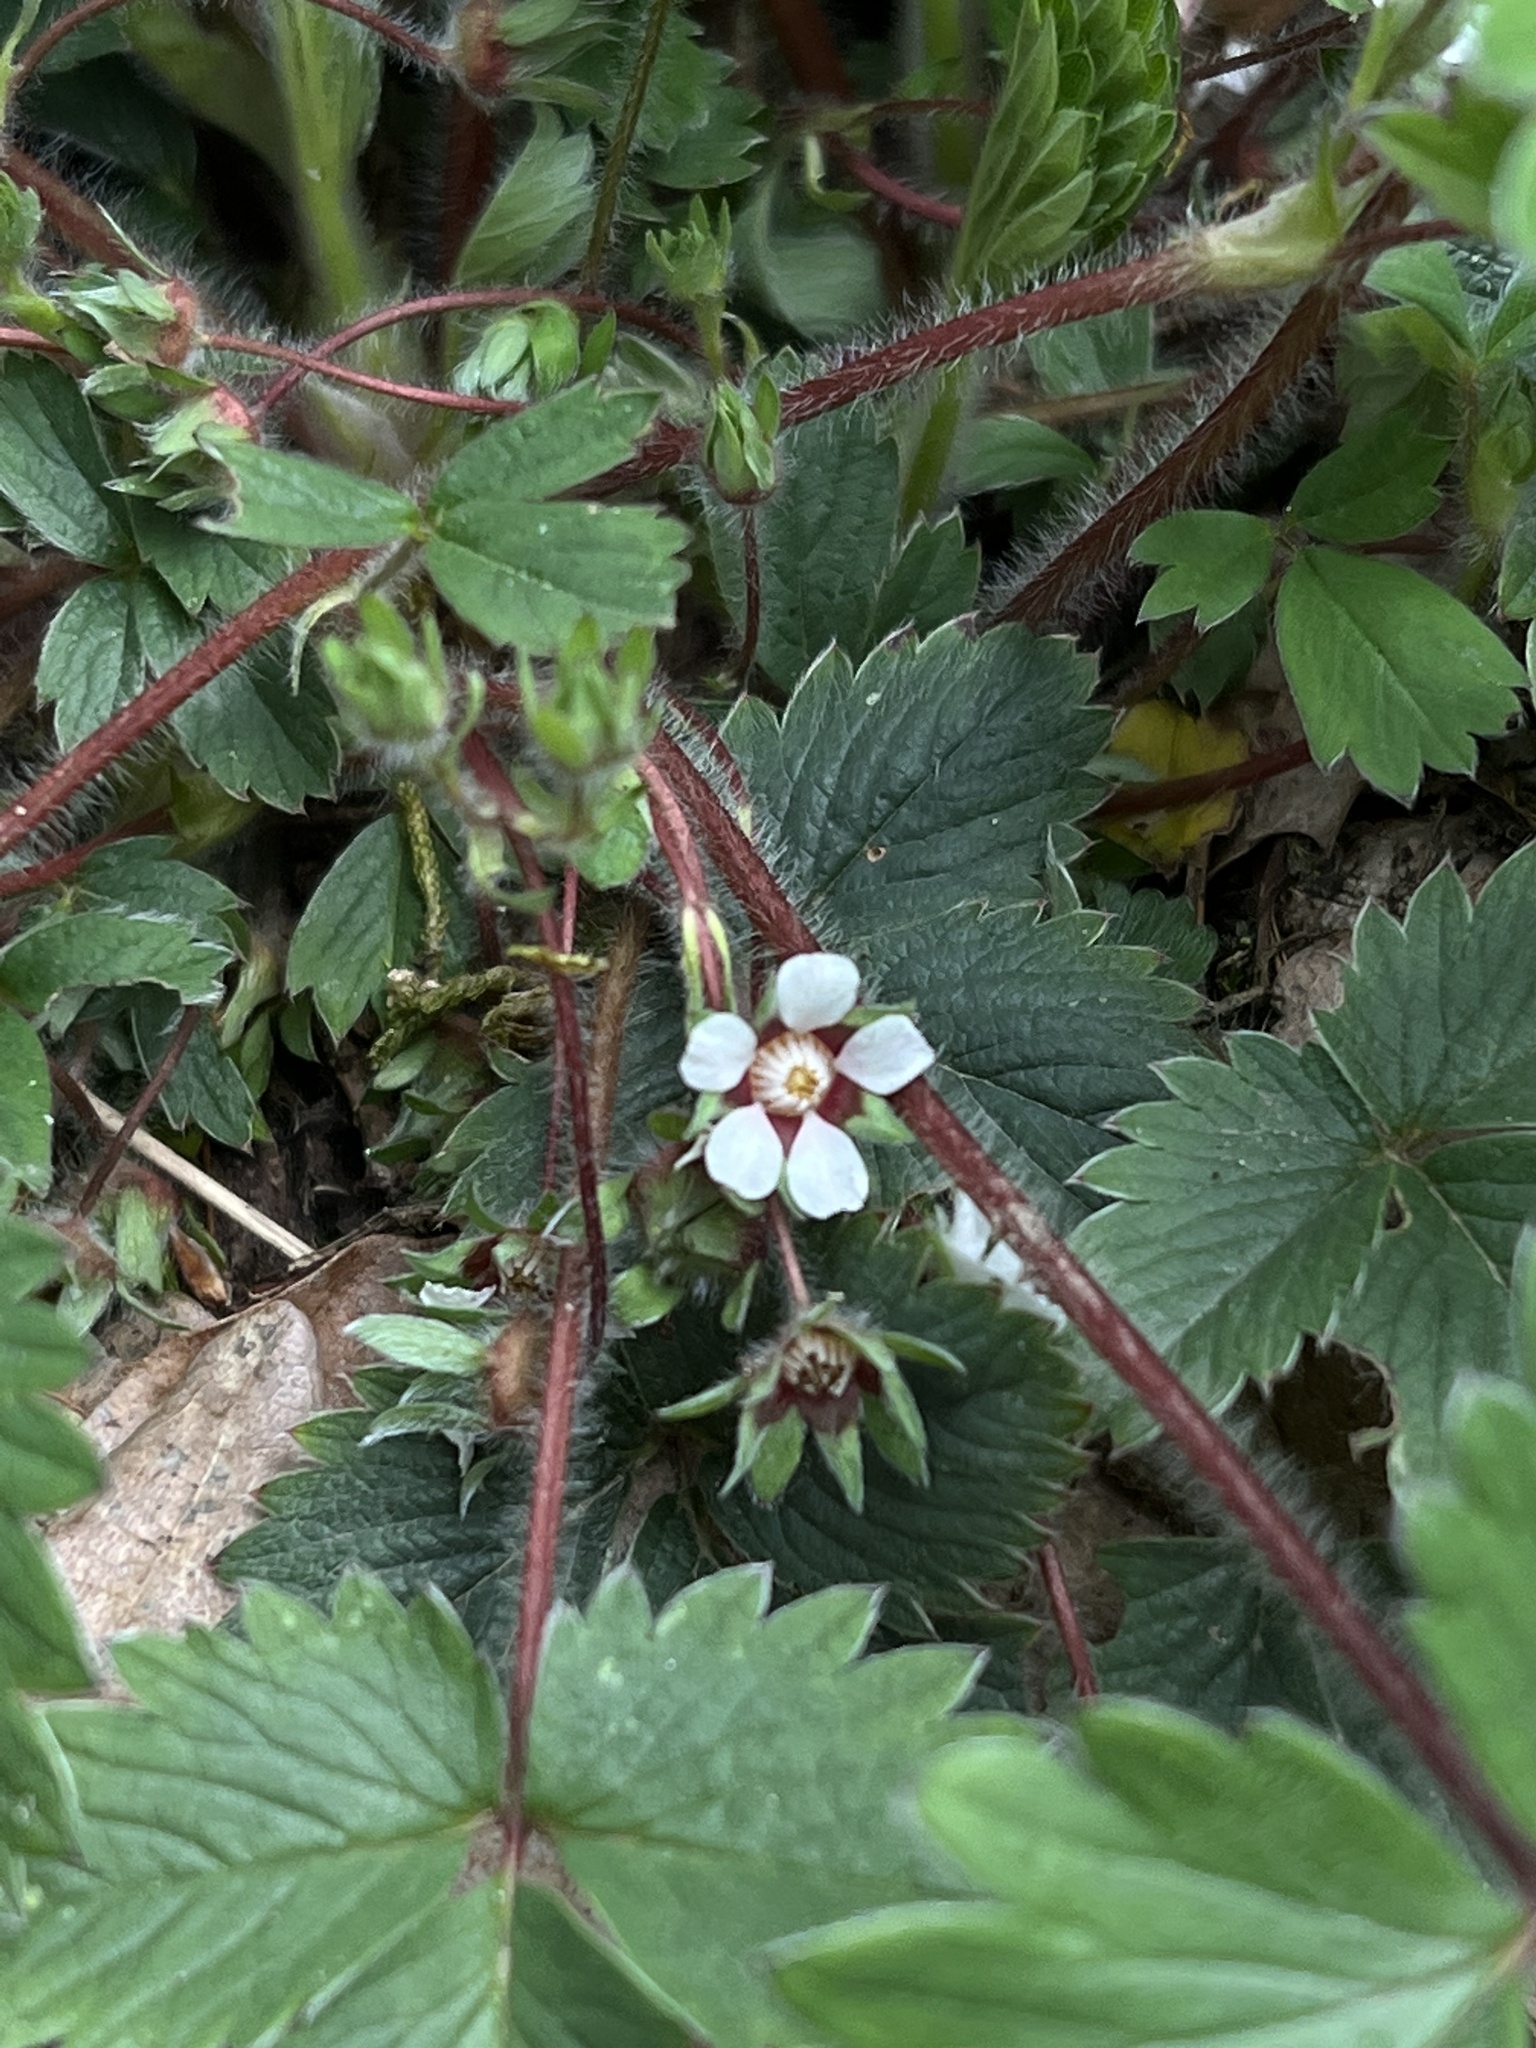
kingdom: Plantae
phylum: Tracheophyta
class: Magnoliopsida
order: Rosales
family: Rosaceae
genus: Potentilla
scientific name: Potentilla micrantha
